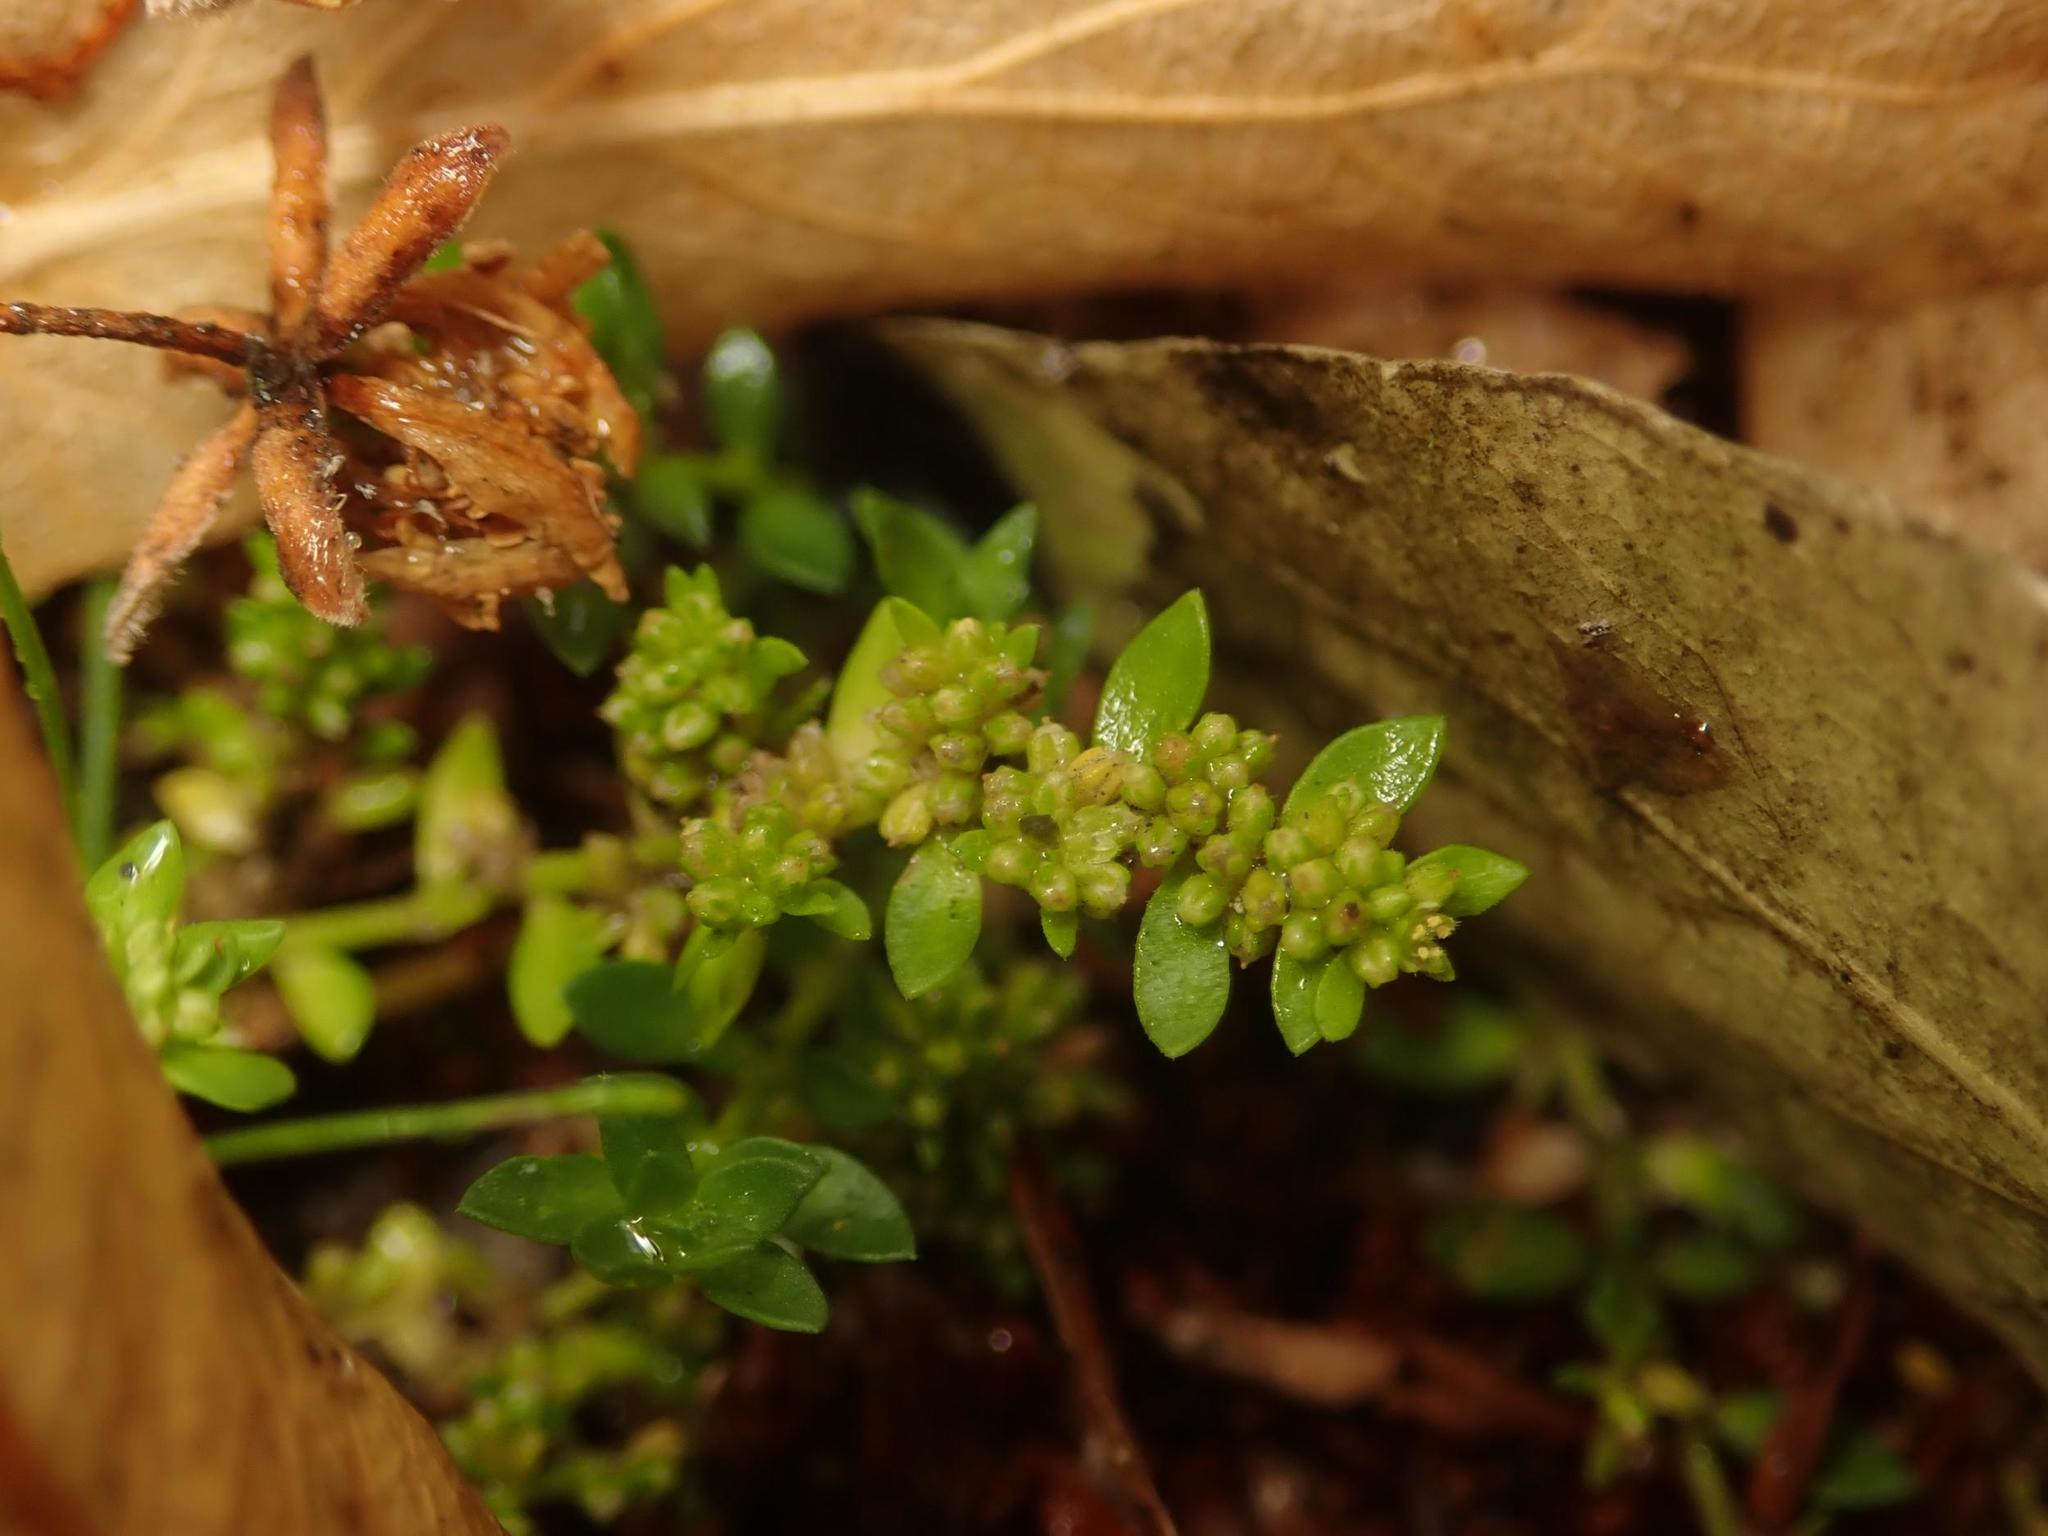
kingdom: Plantae
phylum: Tracheophyta
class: Magnoliopsida
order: Caryophyllales
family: Caryophyllaceae
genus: Herniaria
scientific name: Herniaria glabra
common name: Smooth rupturewort
